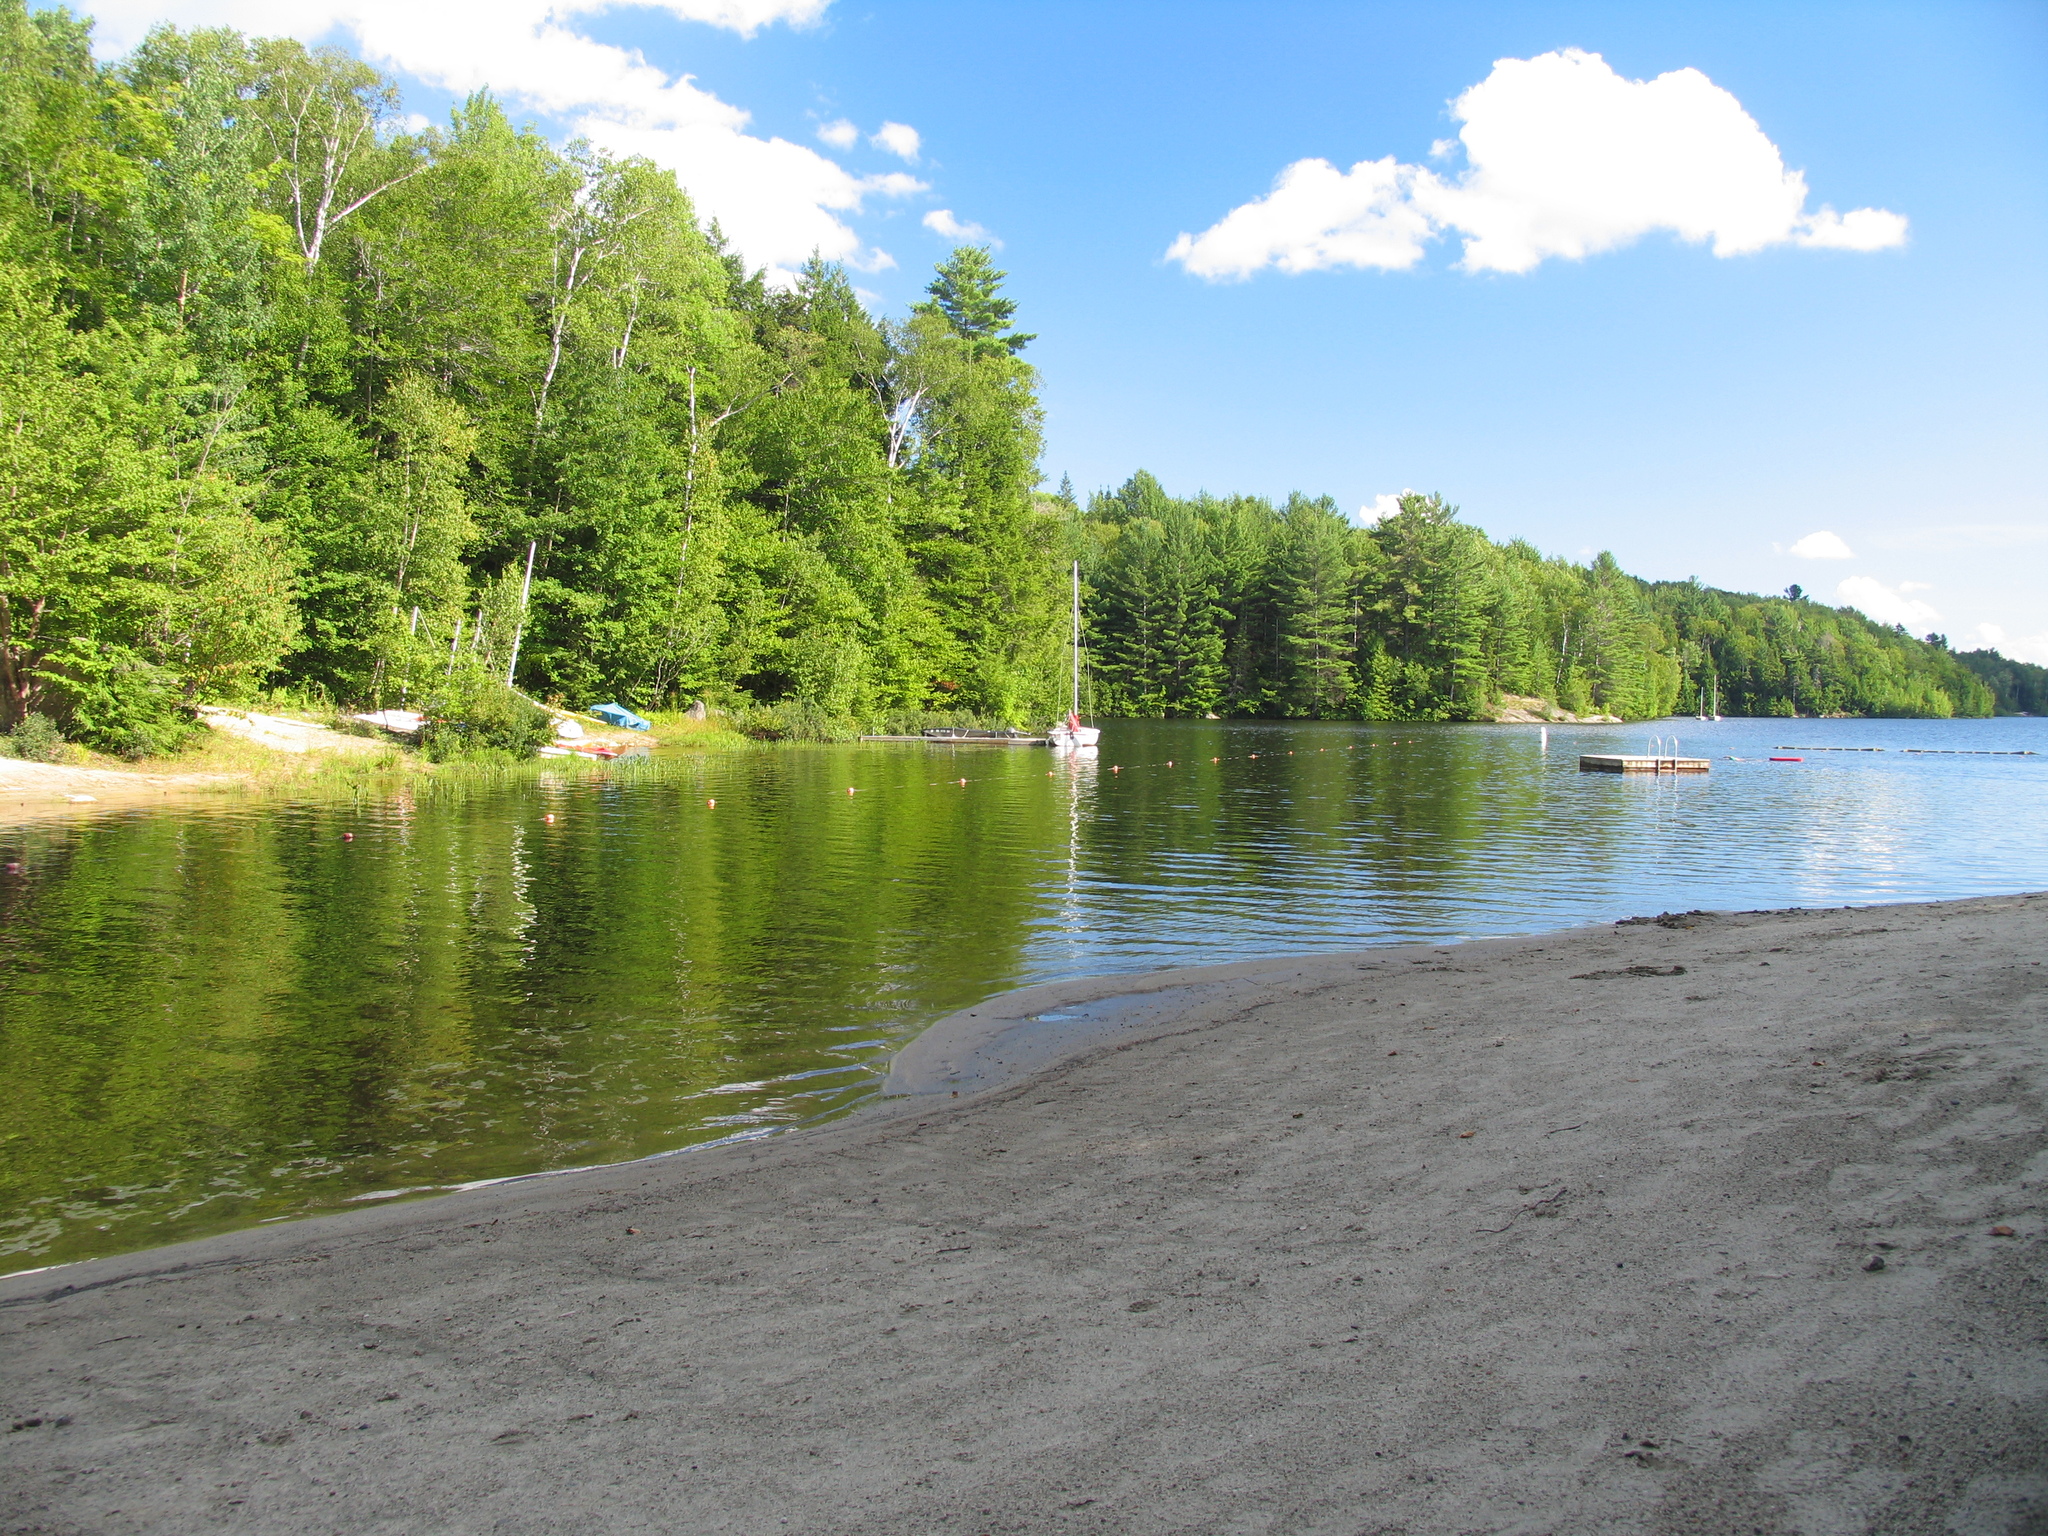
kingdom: Plantae
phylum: Tracheophyta
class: Pinopsida
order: Pinales
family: Pinaceae
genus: Pinus
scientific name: Pinus strobus
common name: Weymouth pine
